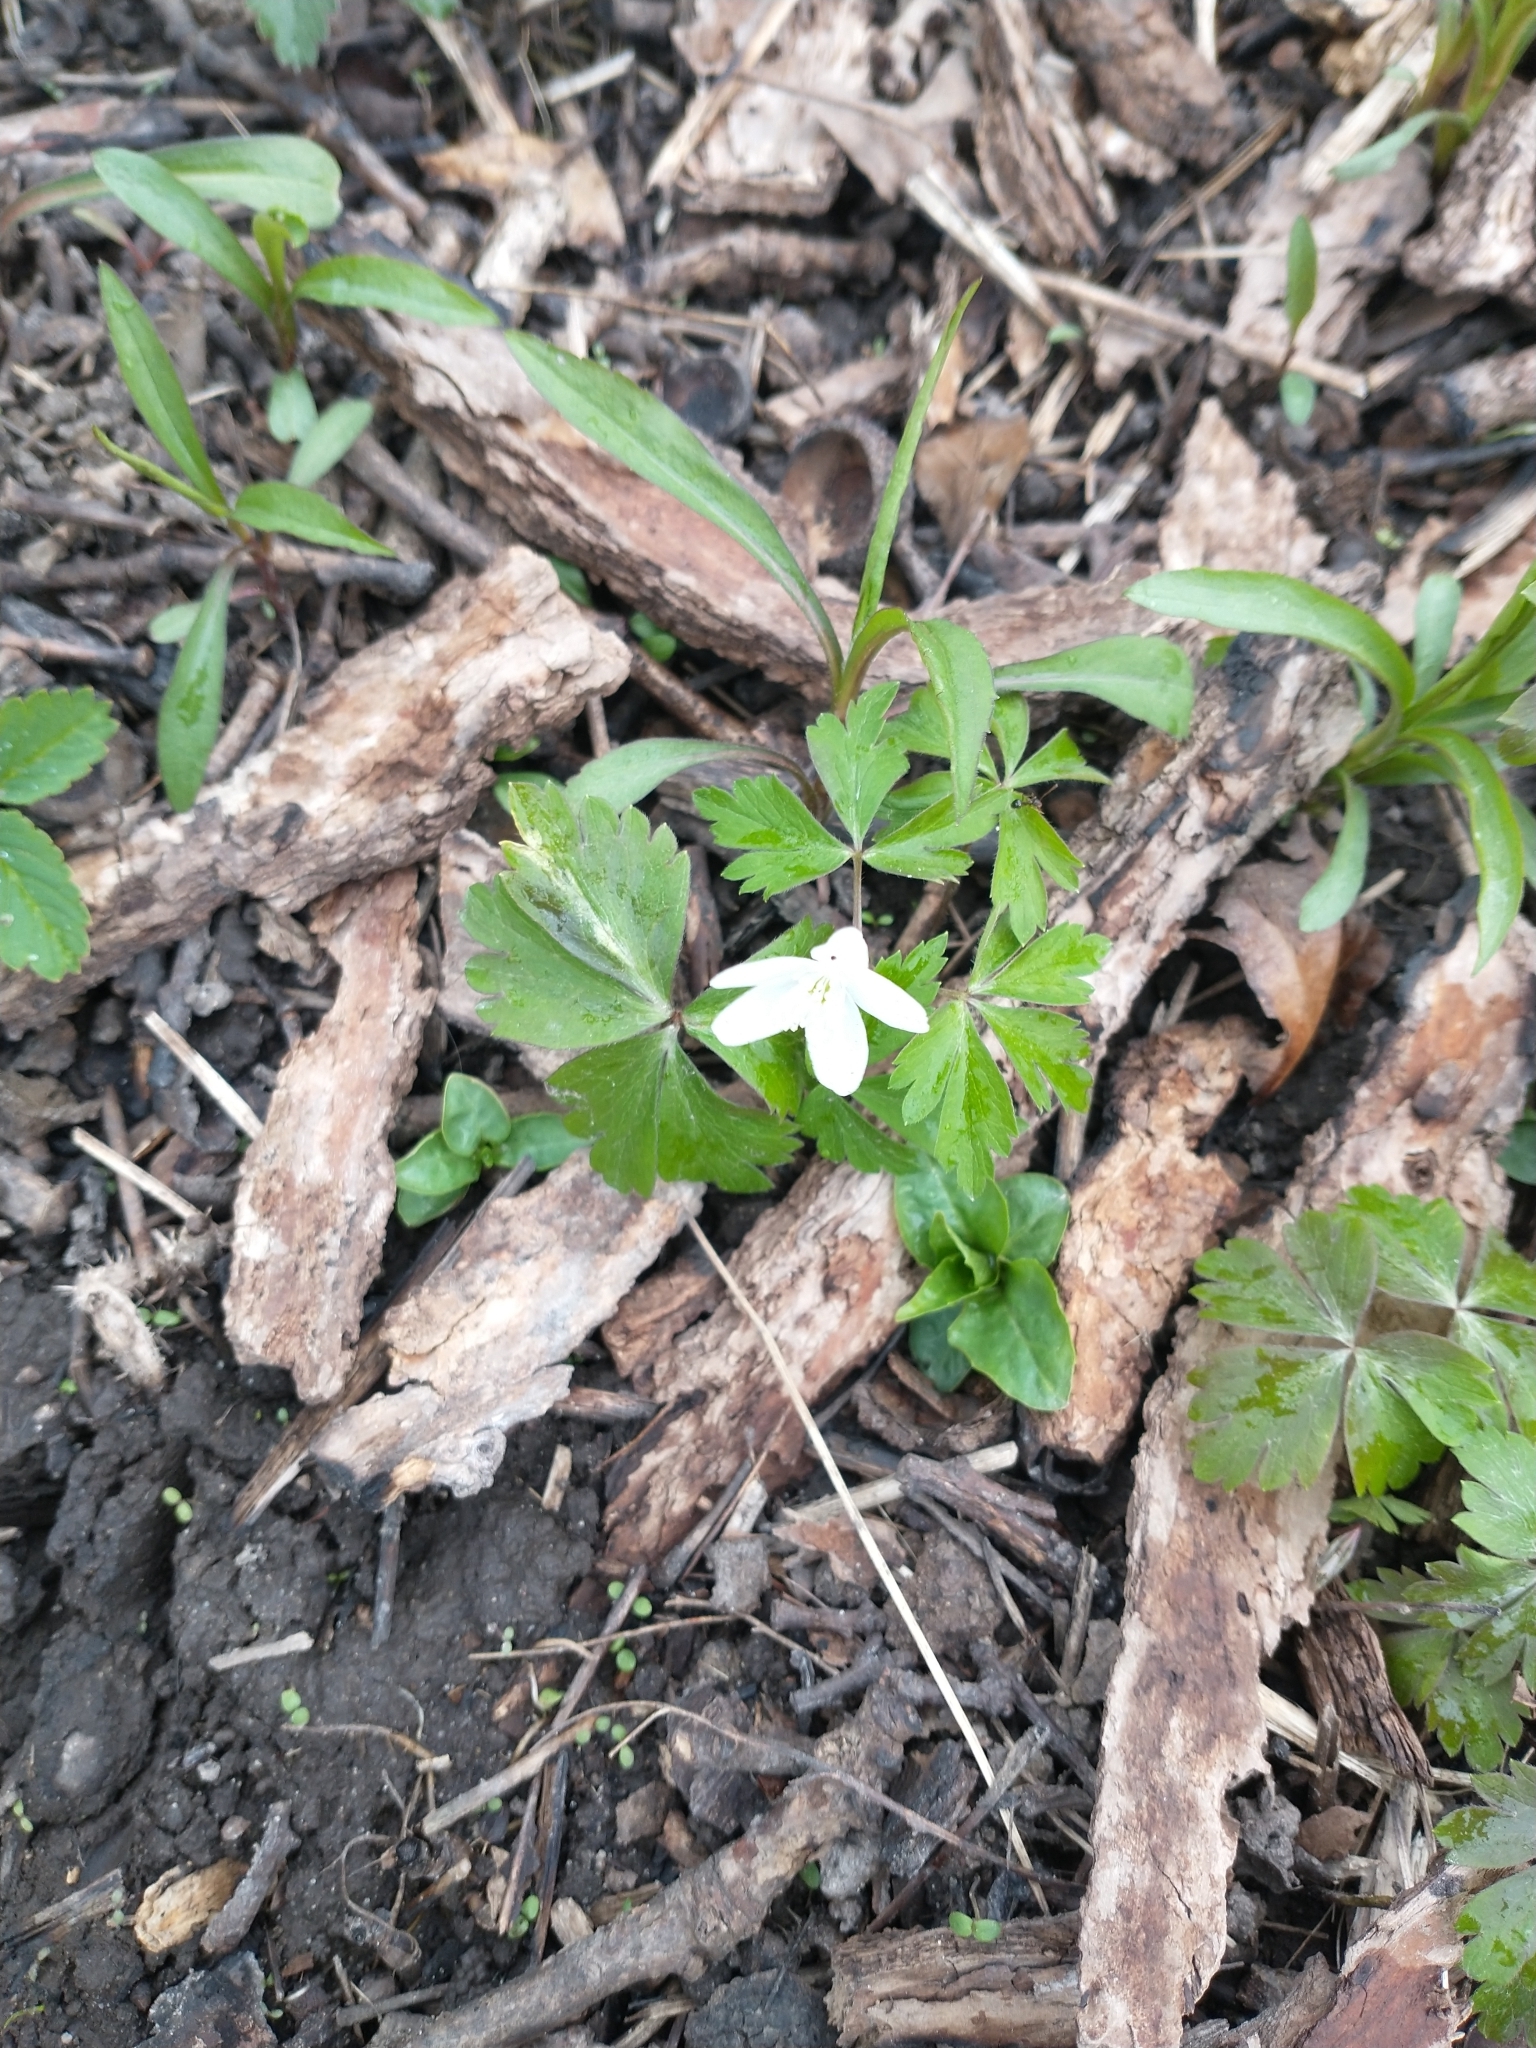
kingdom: Plantae
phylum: Tracheophyta
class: Magnoliopsida
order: Ranunculales
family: Ranunculaceae
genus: Anemone
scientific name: Anemone quinquefolia
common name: Wood anemone
